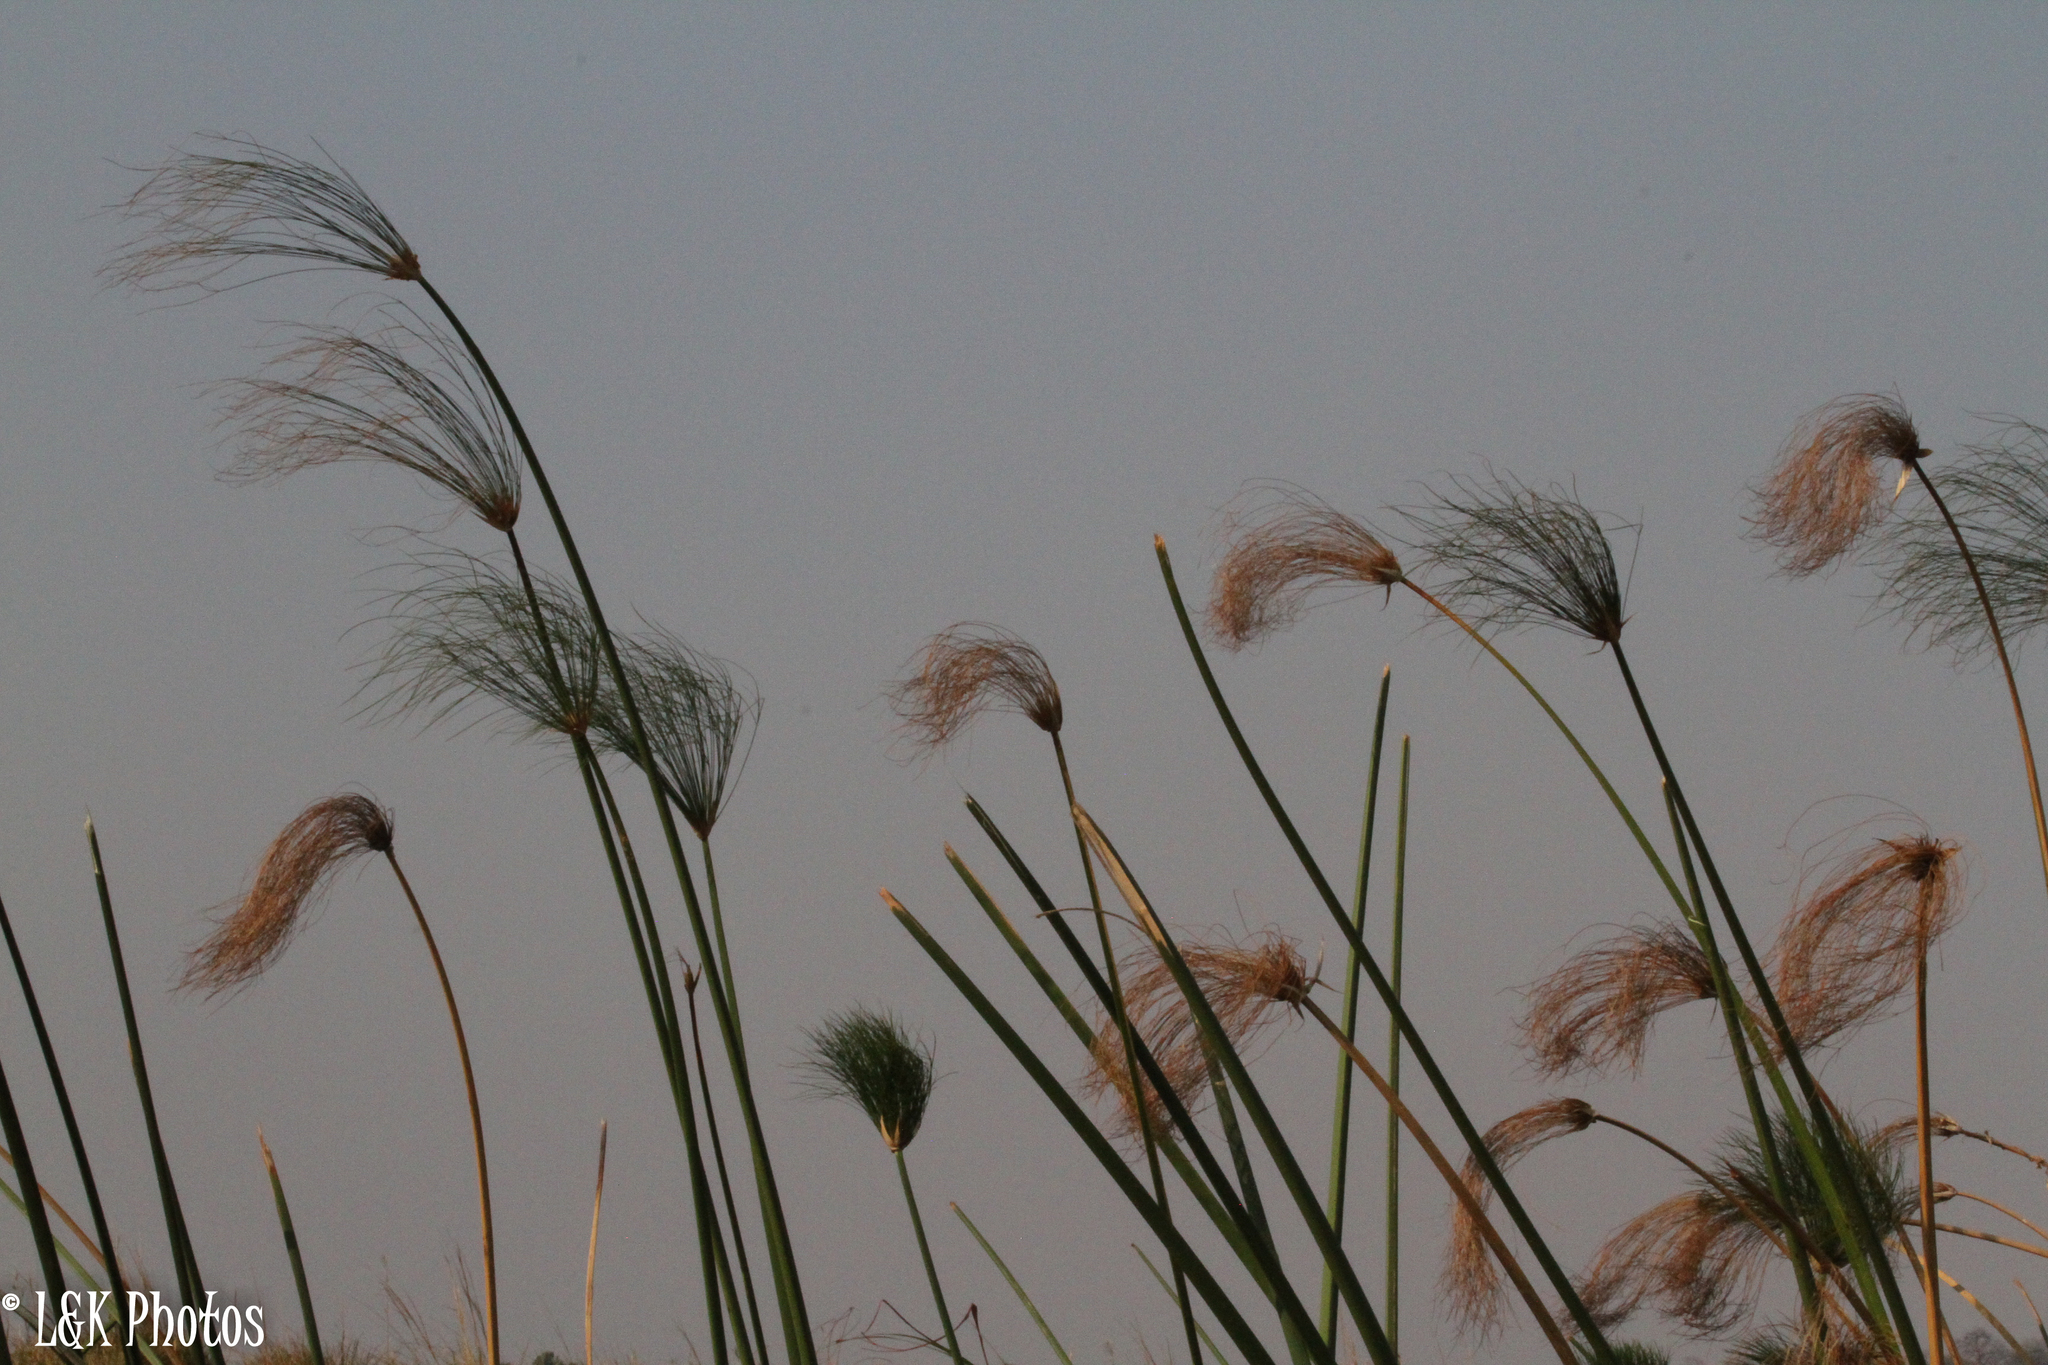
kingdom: Plantae
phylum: Tracheophyta
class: Liliopsida
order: Poales
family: Cyperaceae
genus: Cyperus
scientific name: Cyperus papyrus
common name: Papyrus
